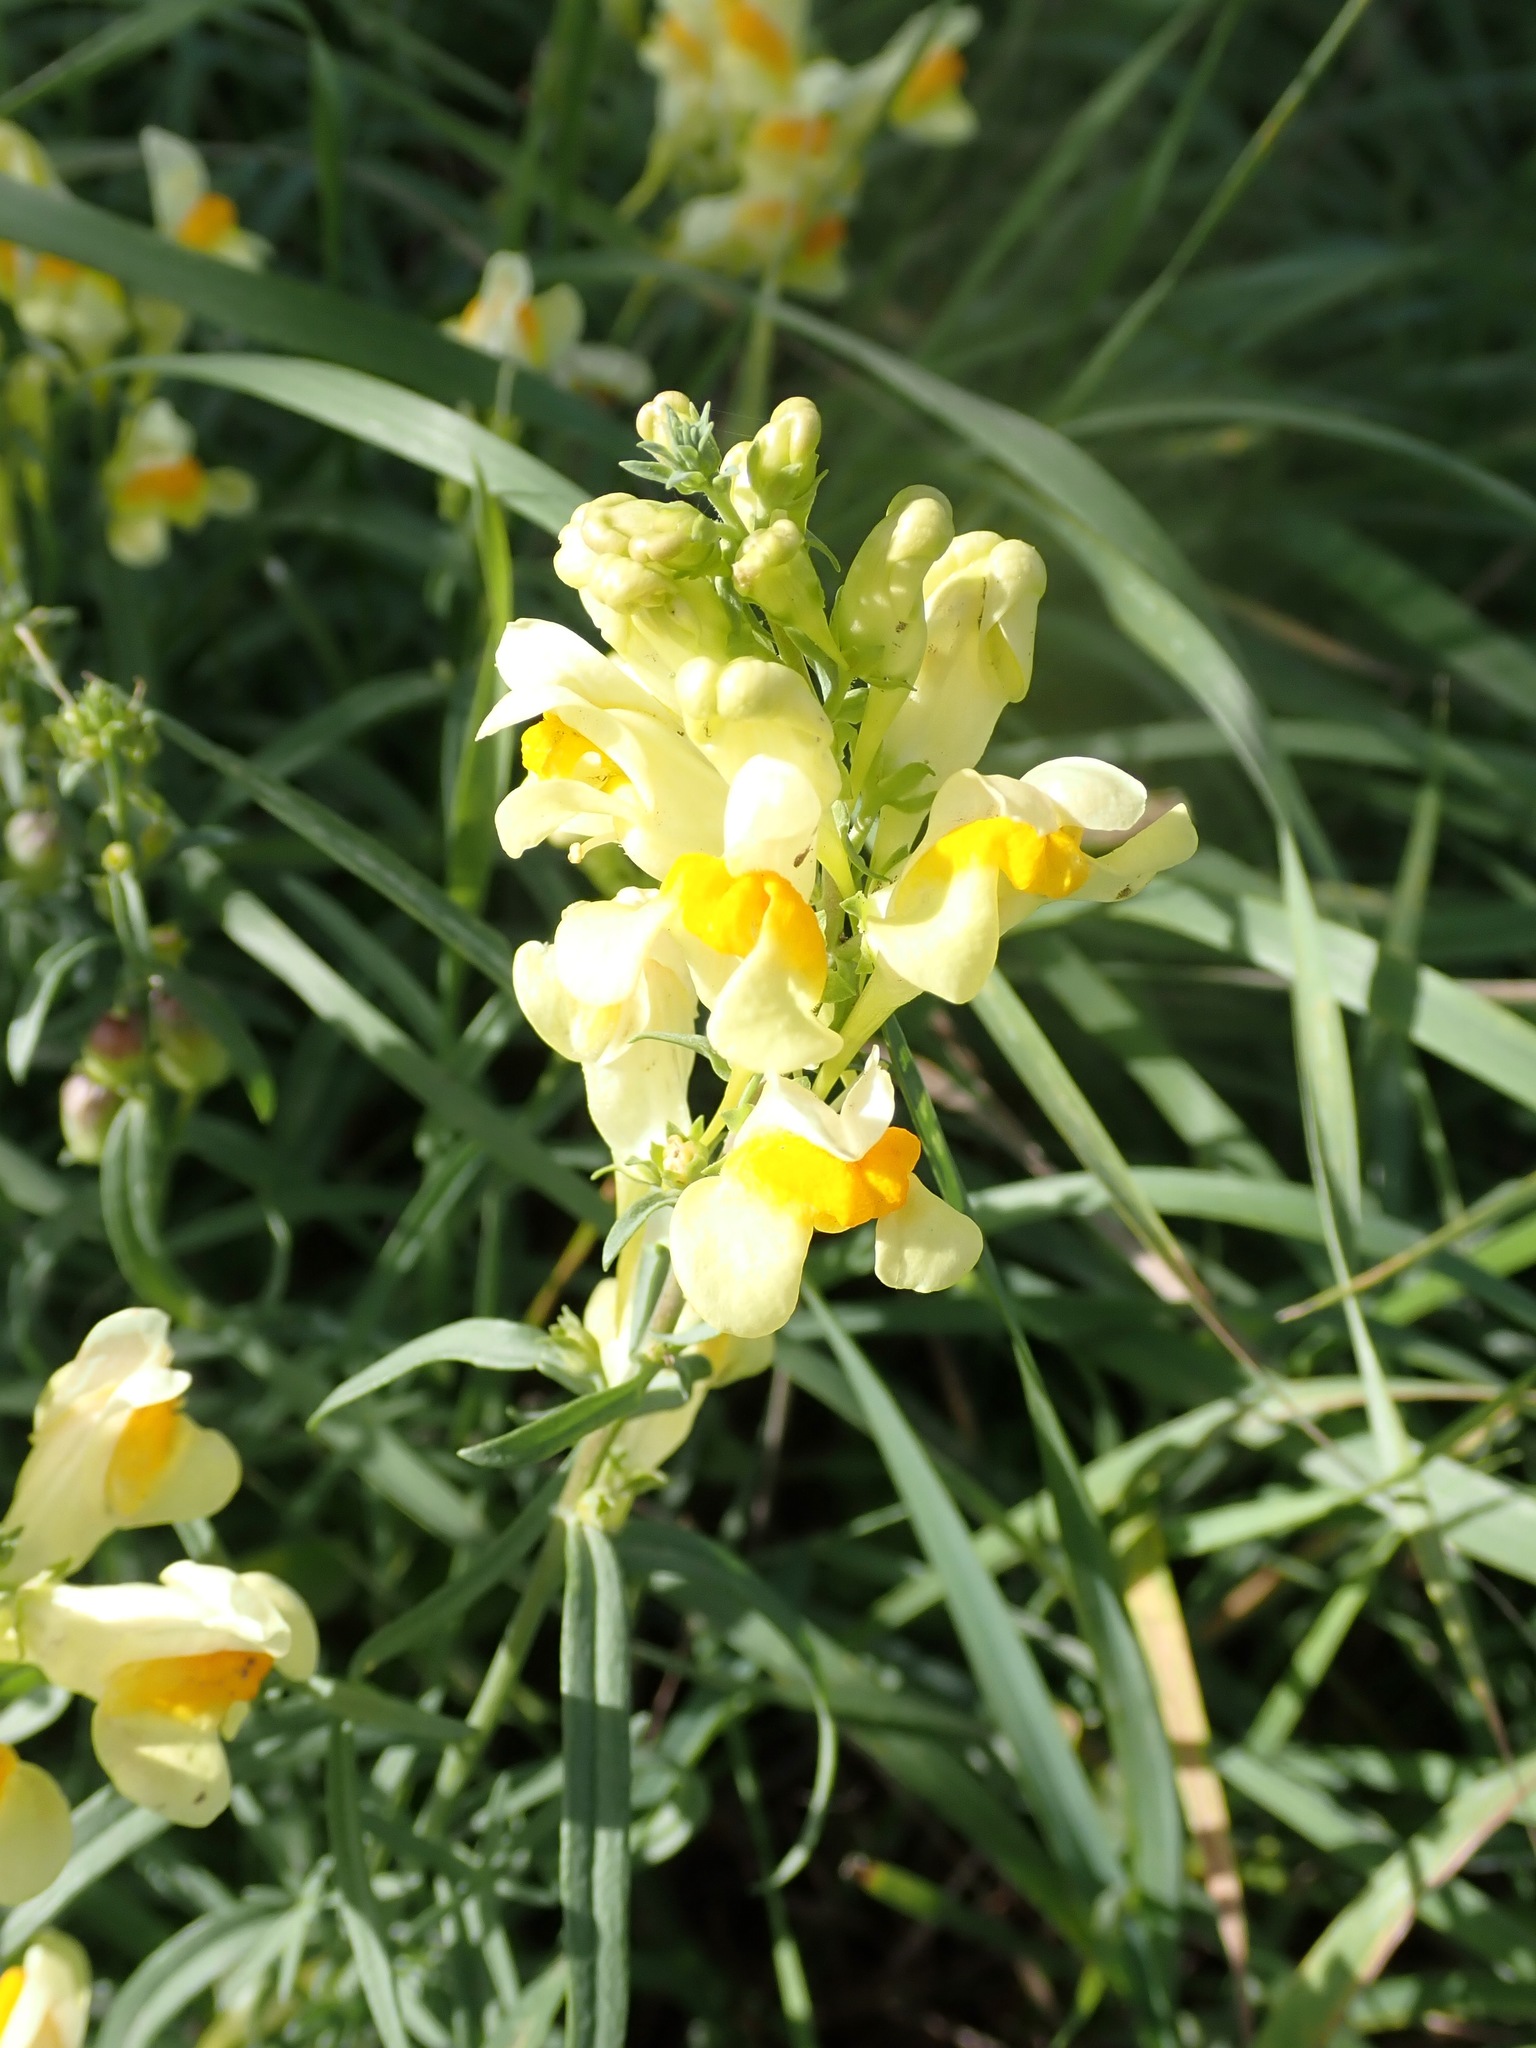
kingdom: Plantae
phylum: Tracheophyta
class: Magnoliopsida
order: Lamiales
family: Plantaginaceae
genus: Linaria
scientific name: Linaria vulgaris
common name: Butter and eggs
